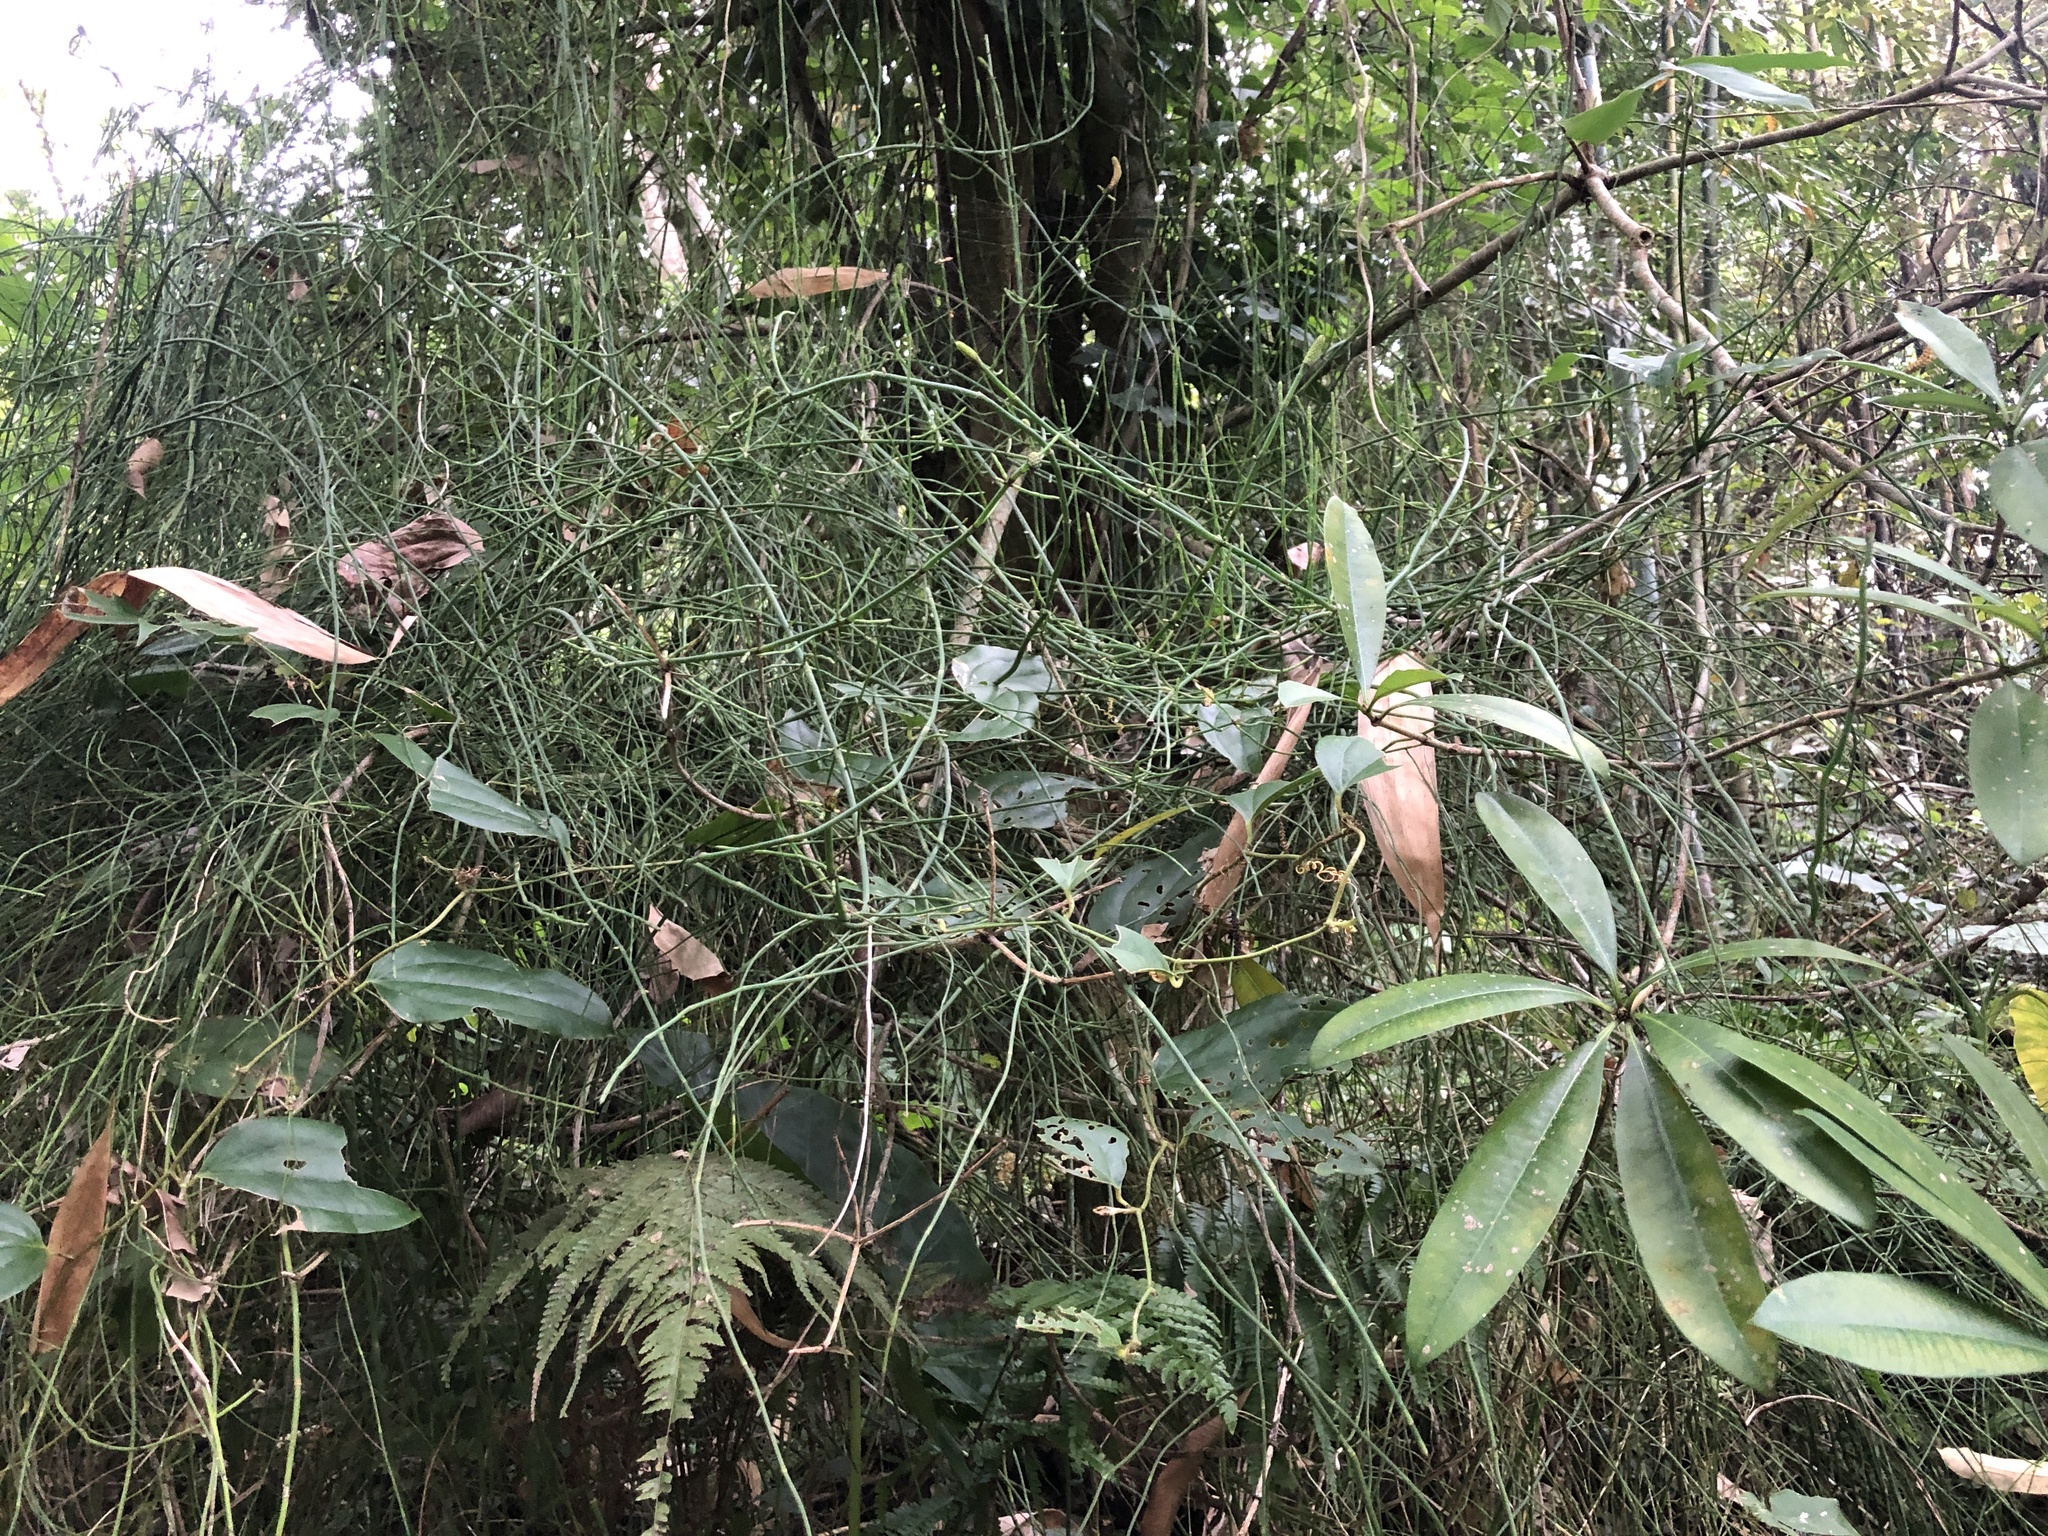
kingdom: Plantae
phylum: Tracheophyta
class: Polypodiopsida
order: Equisetales
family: Equisetaceae
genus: Equisetum
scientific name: Equisetum ramosissimum
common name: Branched horsetail
